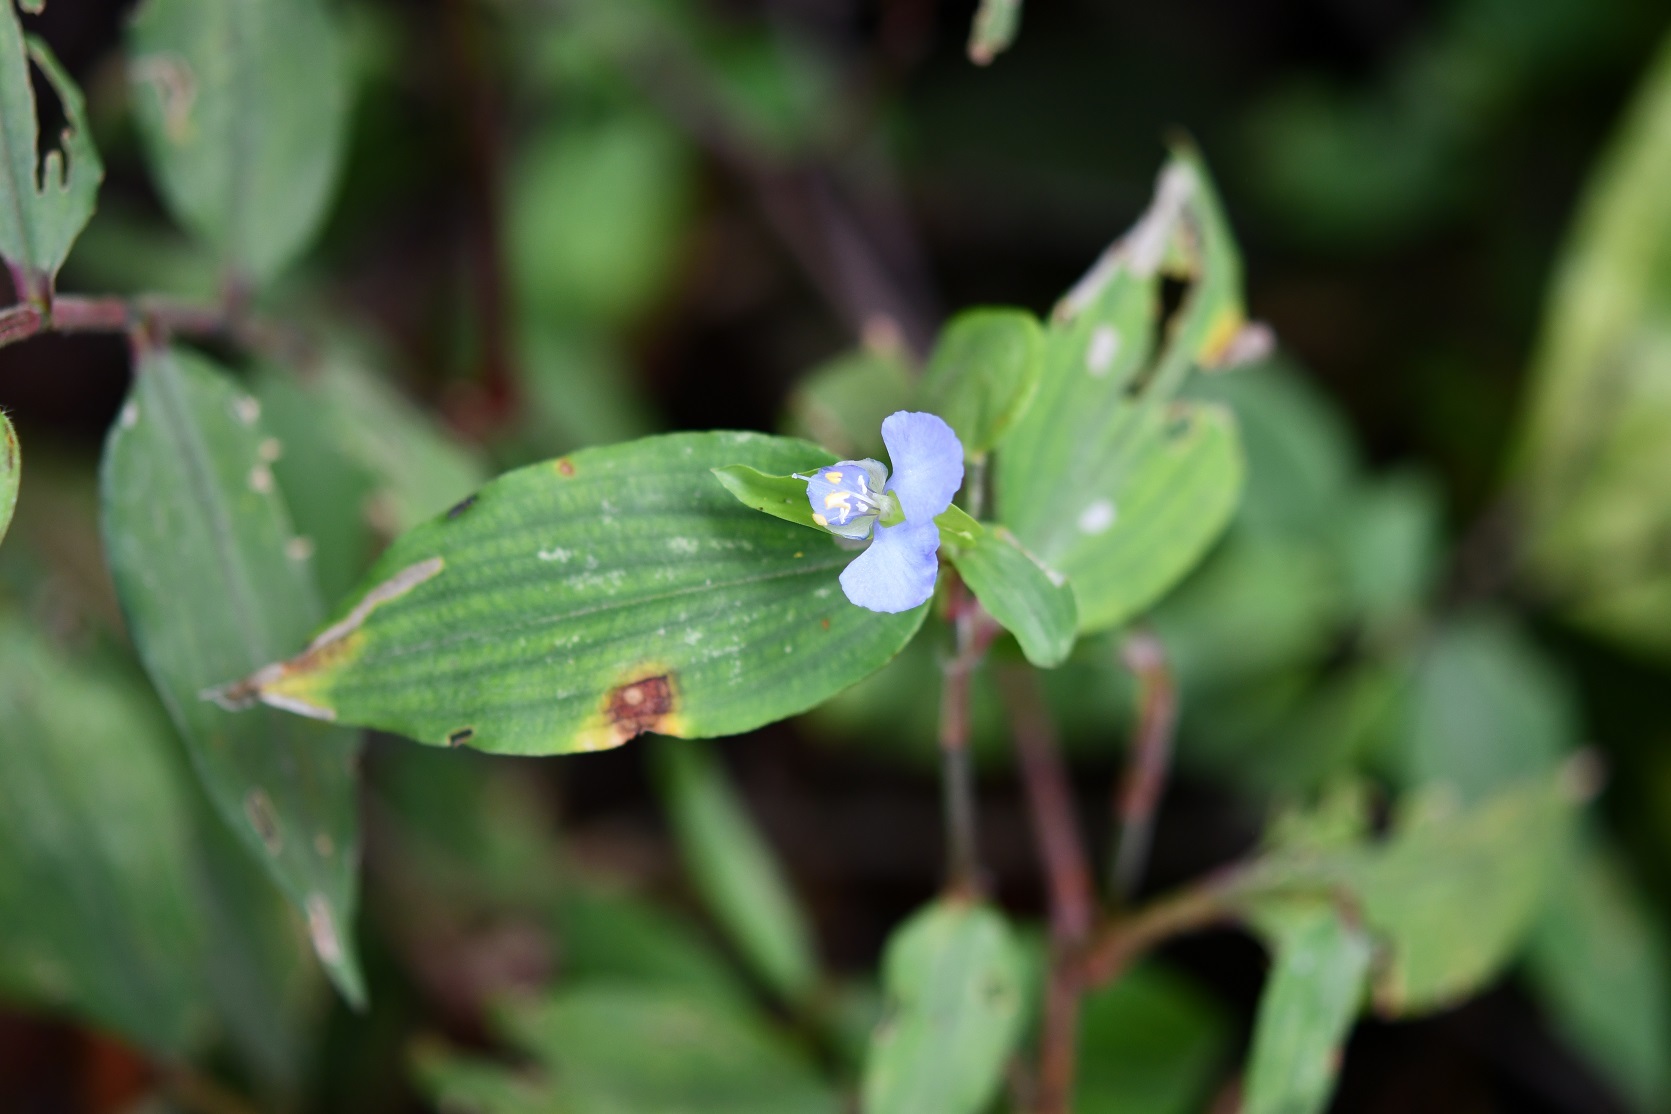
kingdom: Plantae
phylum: Tracheophyta
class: Liliopsida
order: Commelinales
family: Commelinaceae
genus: Commelina
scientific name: Commelina diffusa
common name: Climbing dayflower
